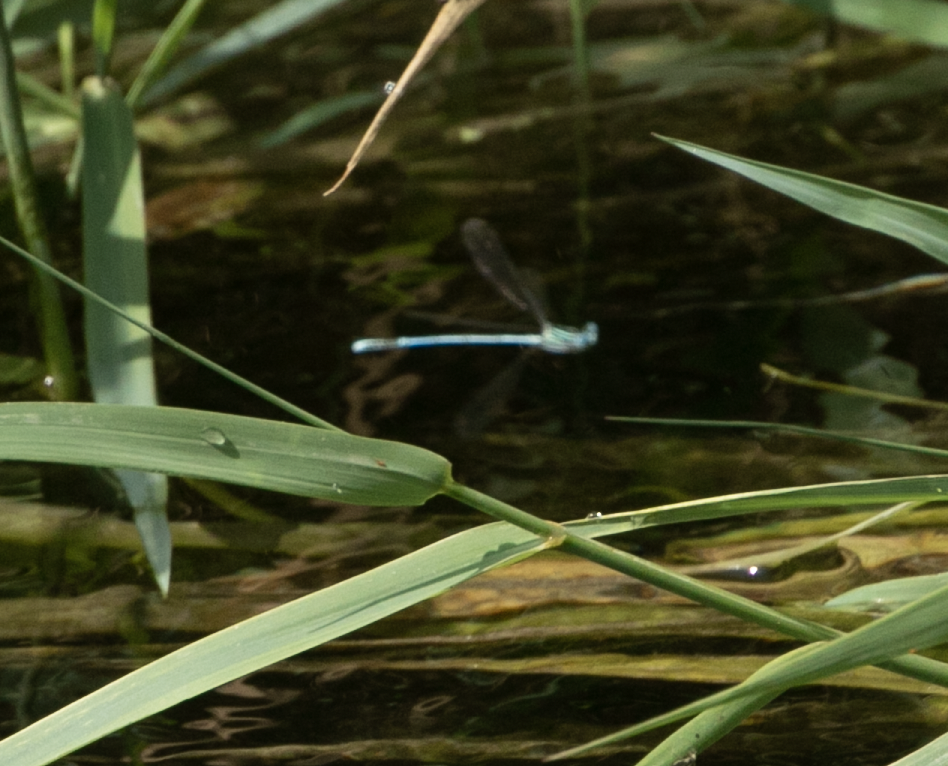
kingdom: Animalia
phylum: Arthropoda
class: Insecta
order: Odonata
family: Platycnemididae
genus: Platycnemis
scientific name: Platycnemis pennipes
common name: White-legged damselfly
